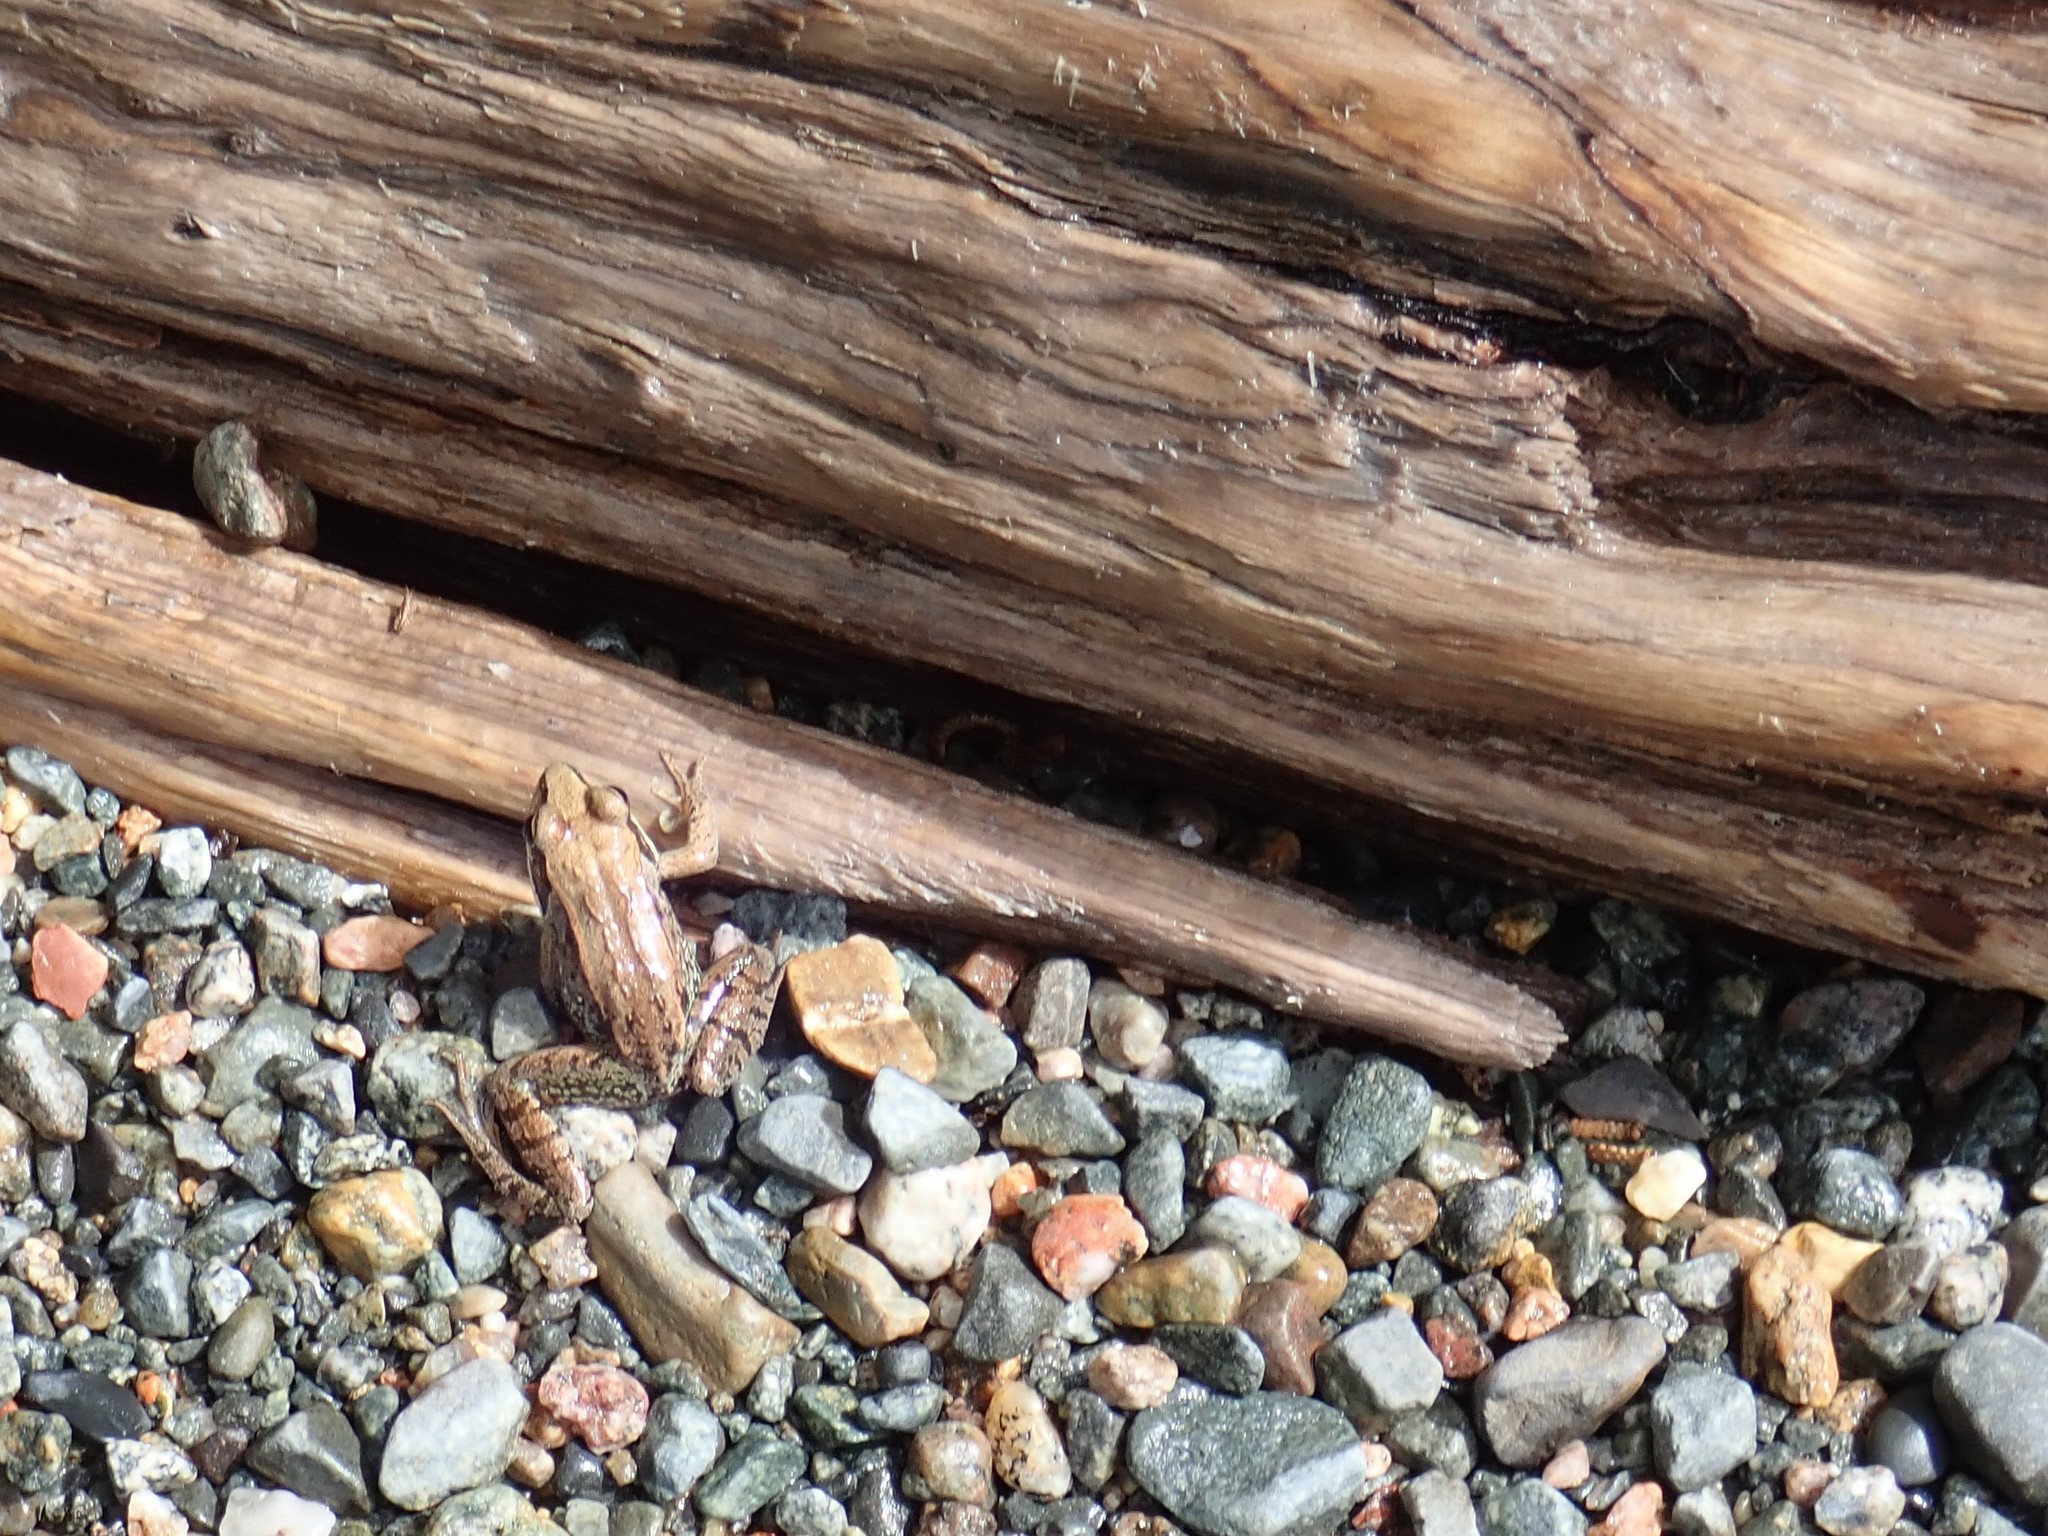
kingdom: Animalia
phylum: Chordata
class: Amphibia
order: Anura
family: Ranidae
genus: Lithobates
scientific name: Lithobates sylvaticus
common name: Wood frog
